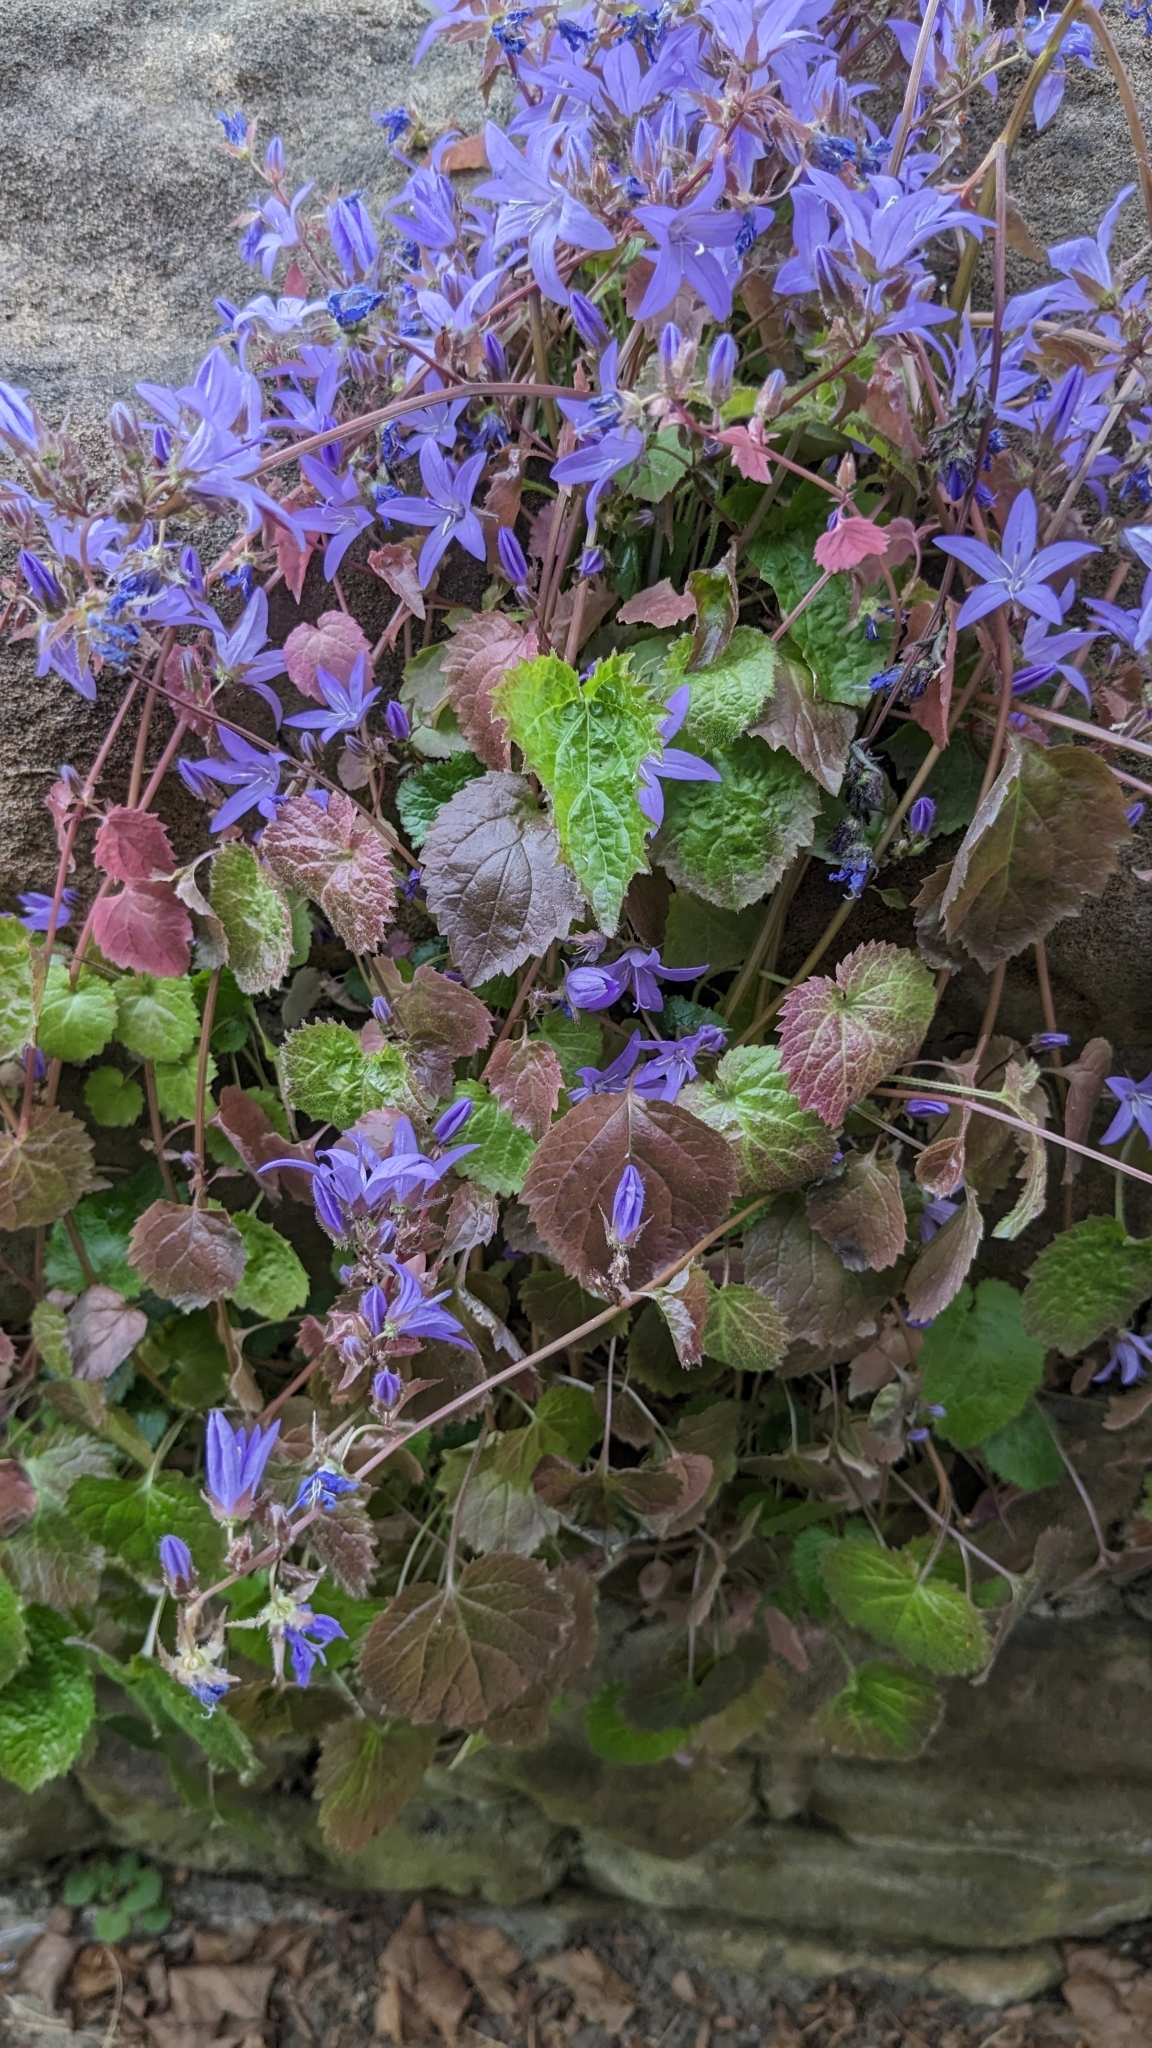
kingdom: Plantae
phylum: Tracheophyta
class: Magnoliopsida
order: Asterales
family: Campanulaceae
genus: Campanula
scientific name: Campanula poscharskyana
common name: Trailing bellflower
